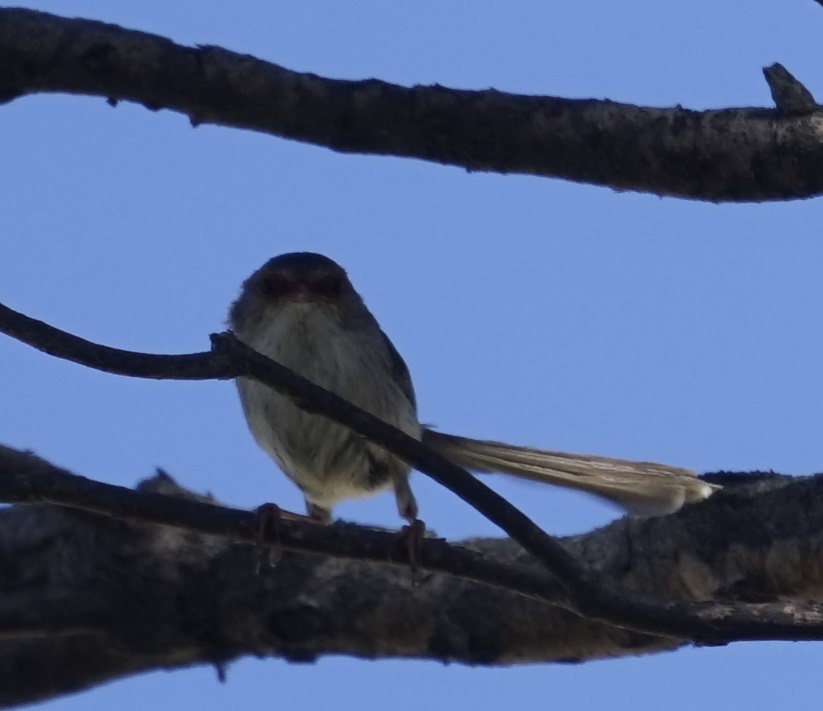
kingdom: Animalia
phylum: Chordata
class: Aves
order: Passeriformes
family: Maluridae
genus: Malurus
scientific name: Malurus cyaneus
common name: Superb fairywren
